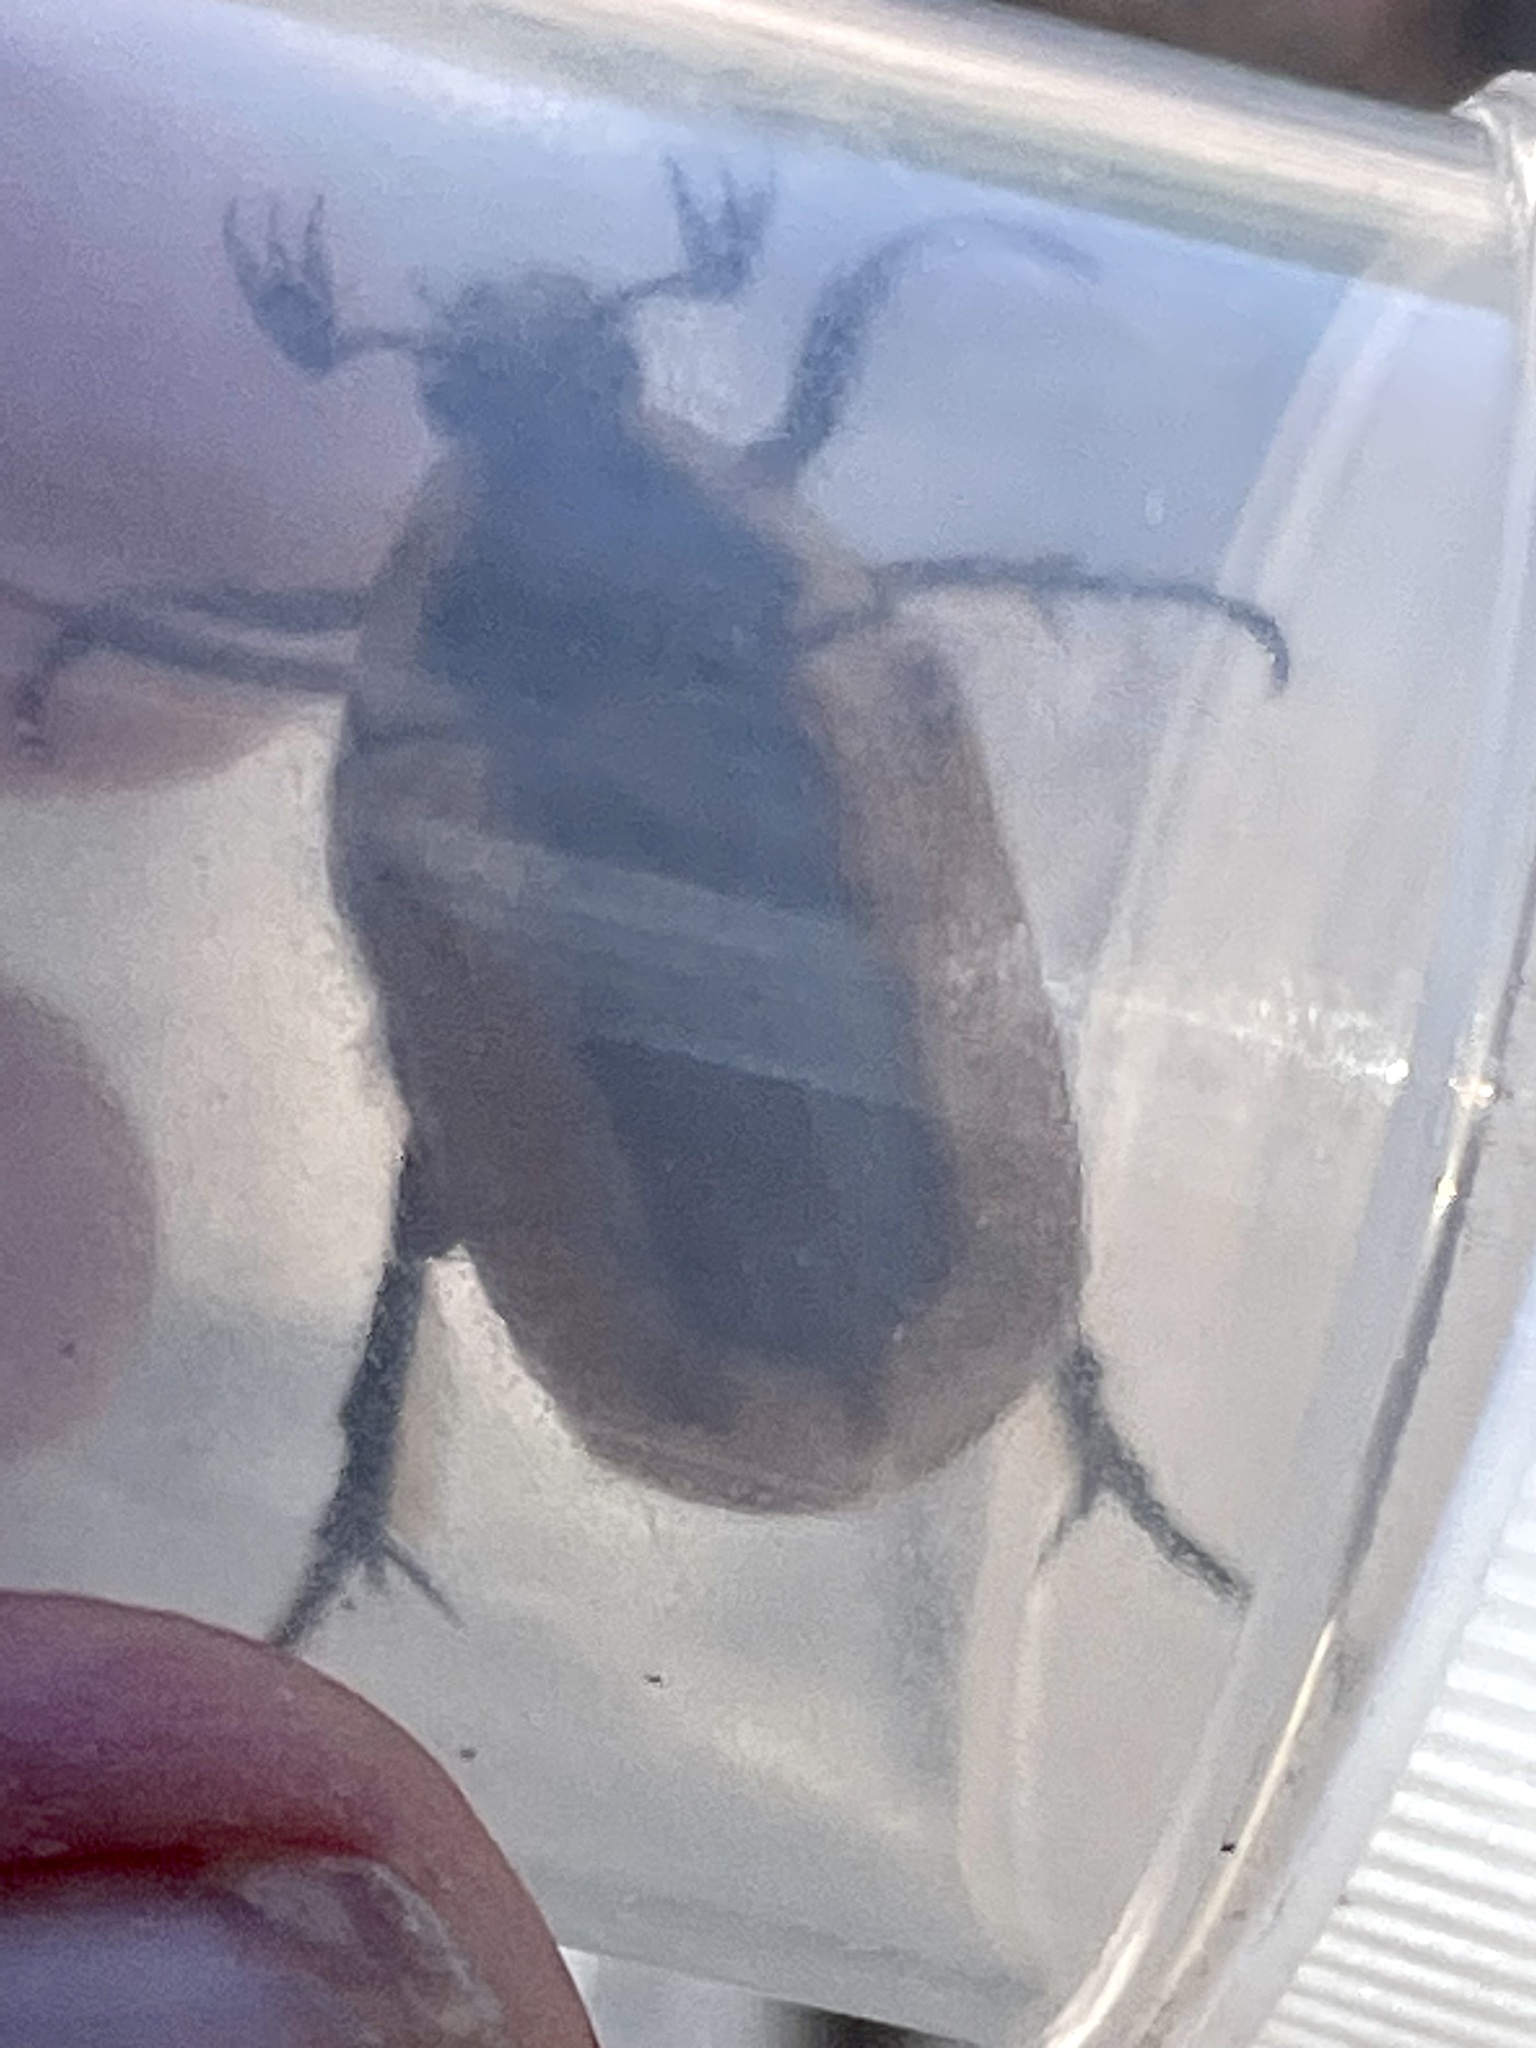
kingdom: Animalia
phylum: Arthropoda
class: Insecta
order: Coleoptera
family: Scarabaeidae
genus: Chondropyga
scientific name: Chondropyga dorsalis
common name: Cowboy beetle
